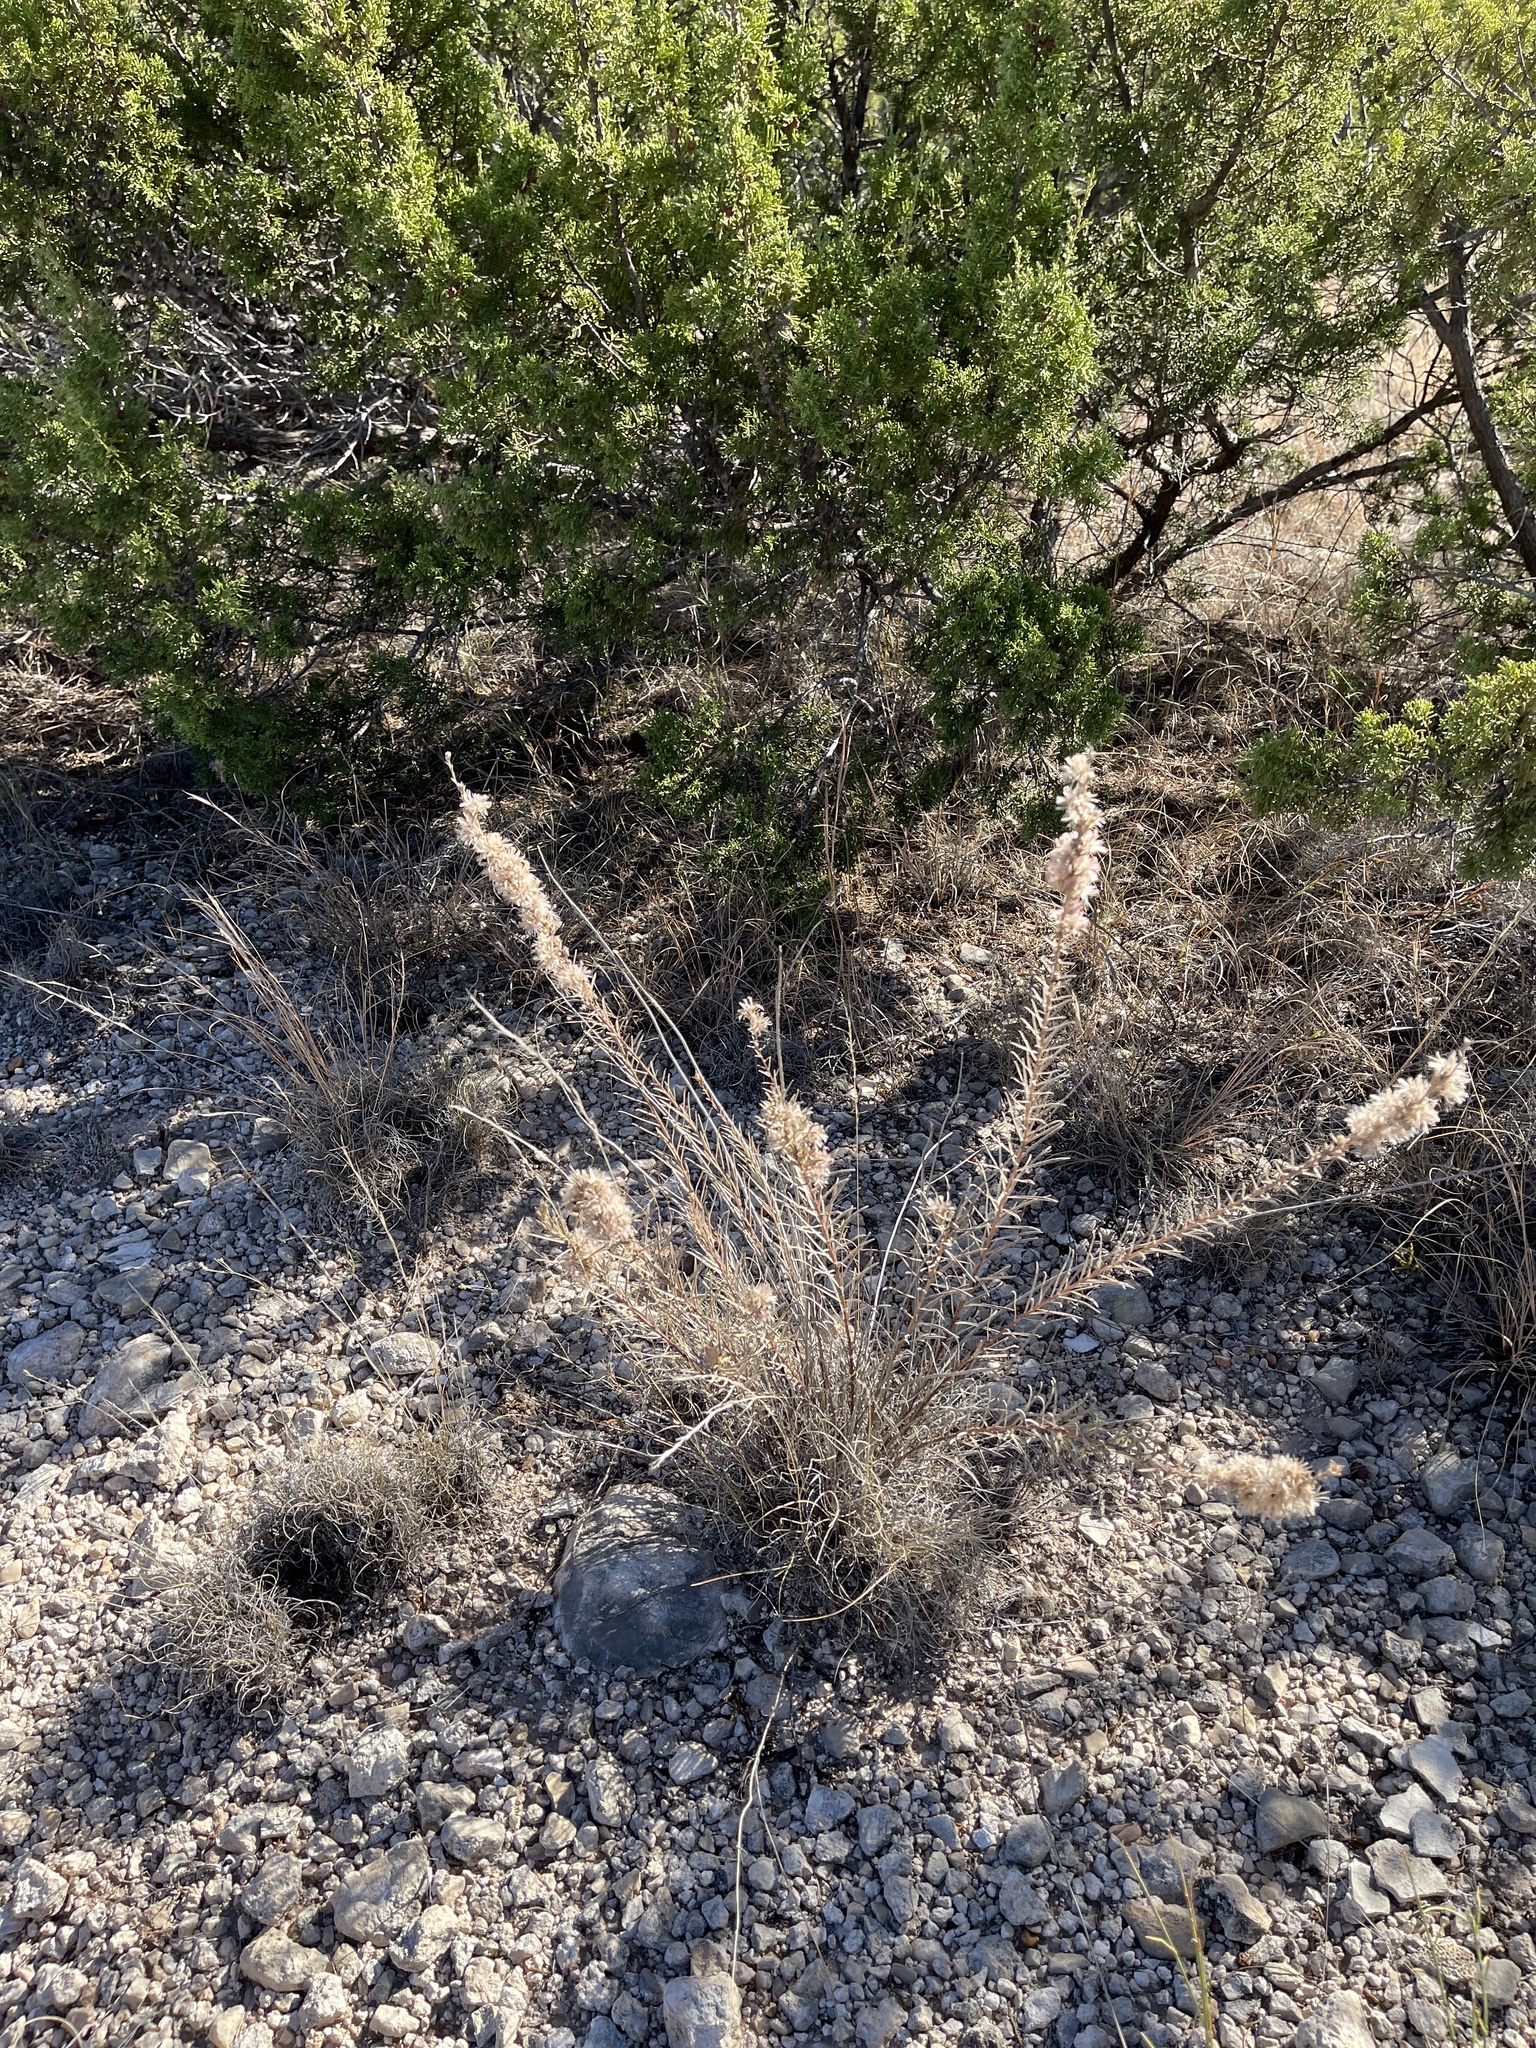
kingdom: Plantae
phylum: Tracheophyta
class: Magnoliopsida
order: Asterales
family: Asteraceae
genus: Liatris
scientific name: Liatris punctata
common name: Dotted gayfeather
